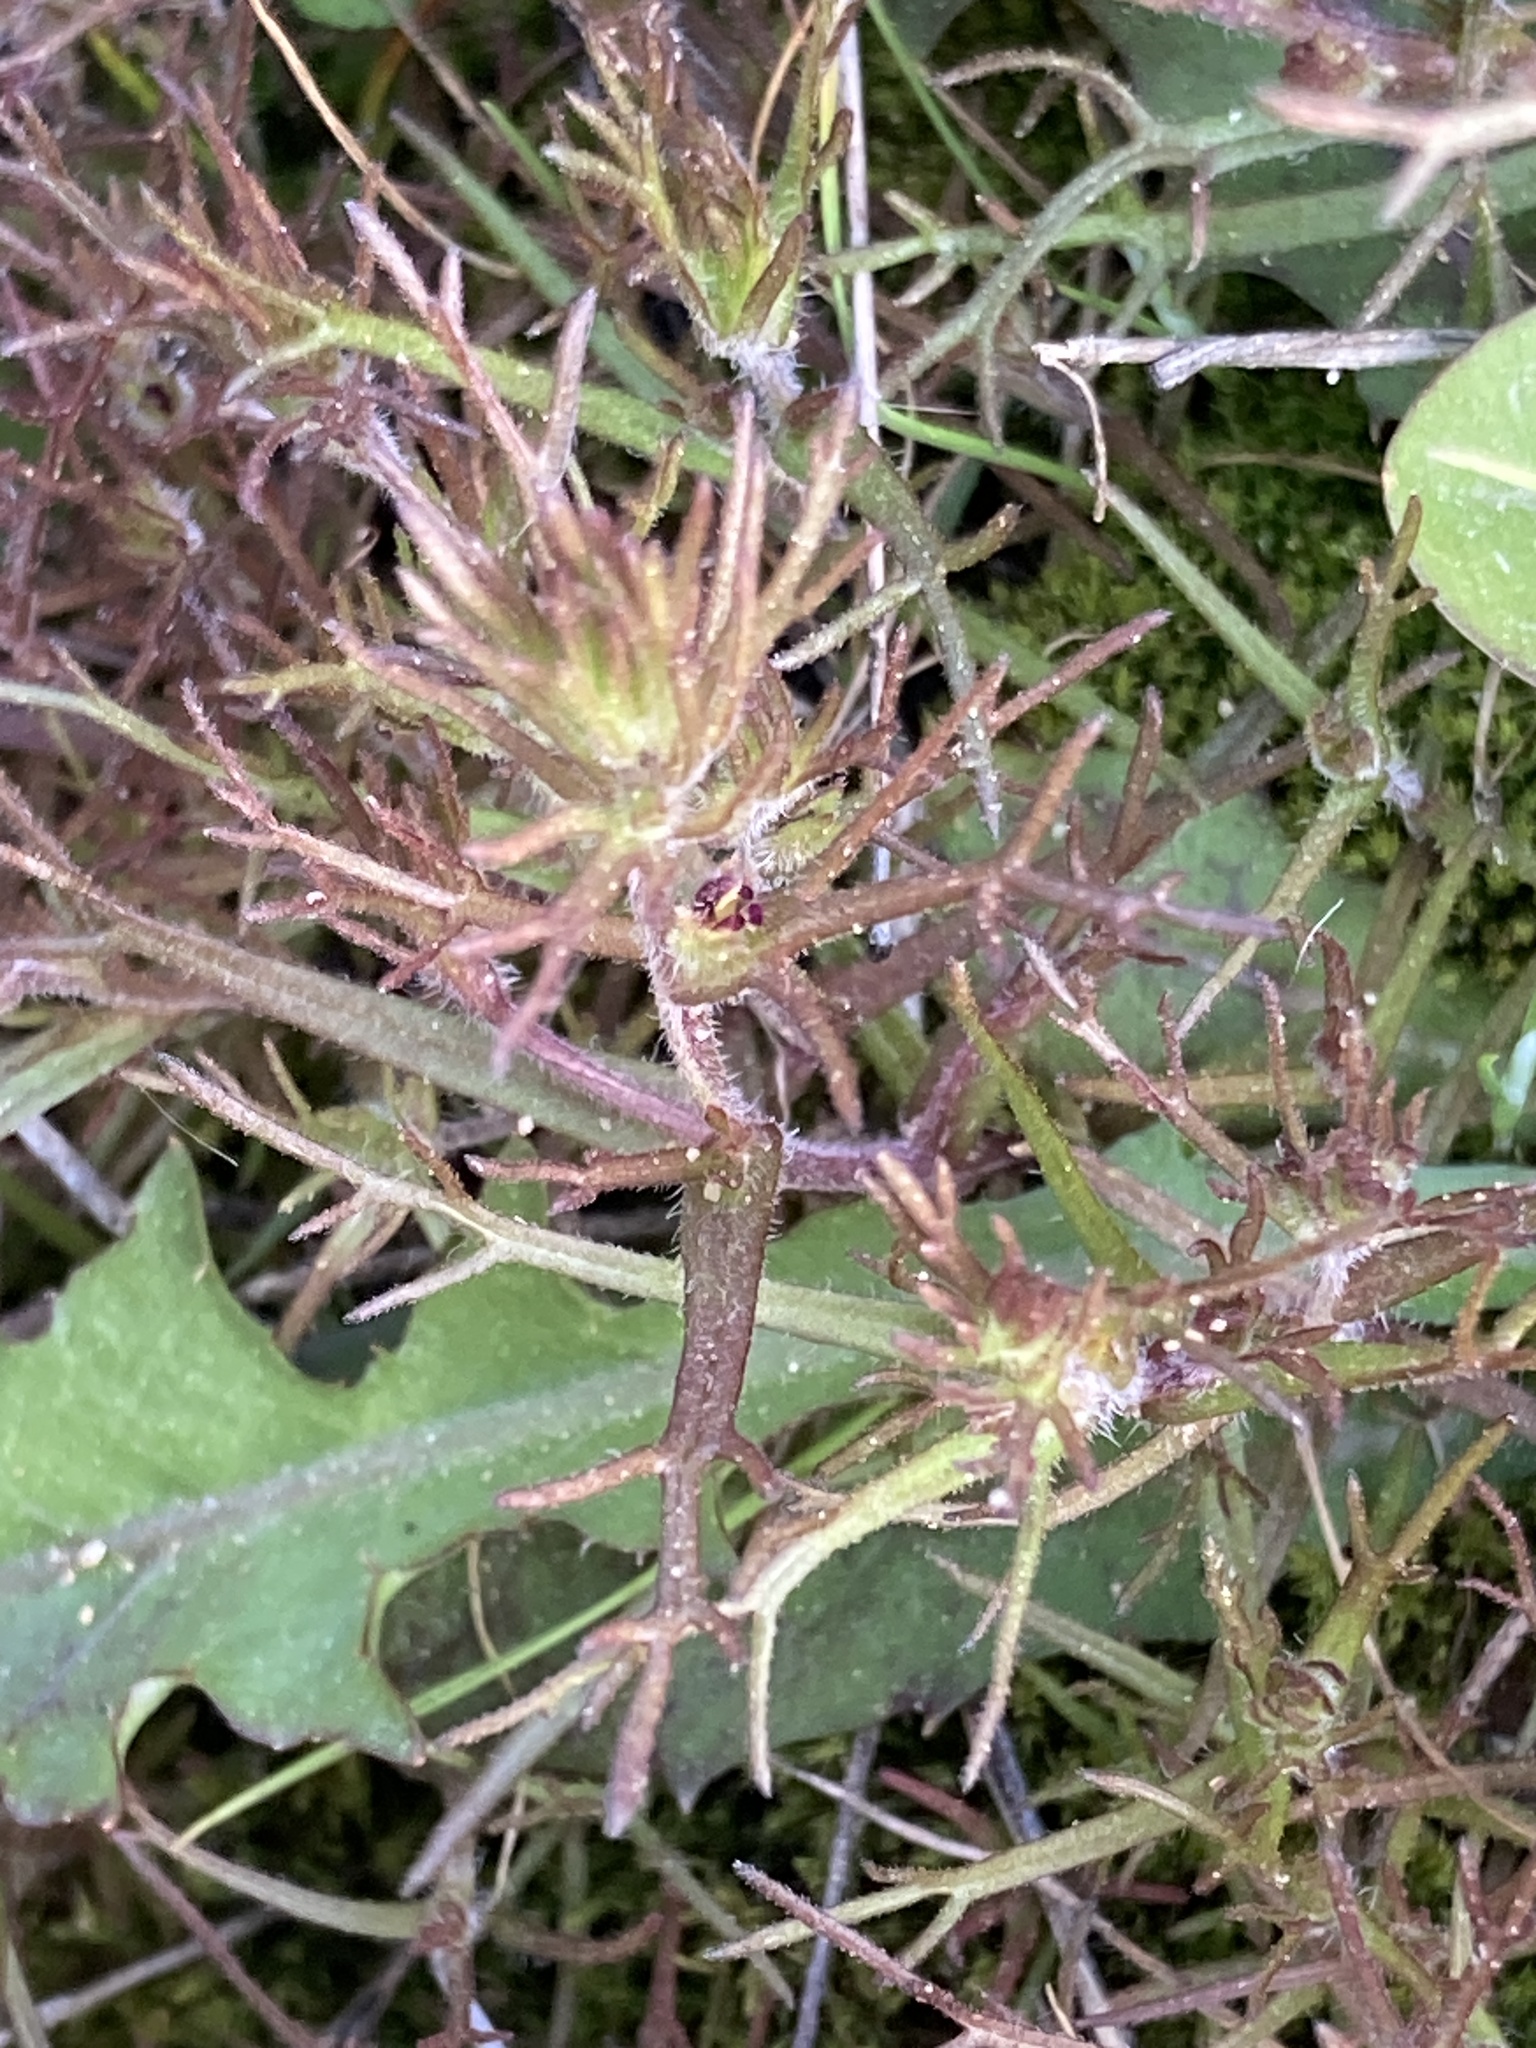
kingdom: Plantae
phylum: Tracheophyta
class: Magnoliopsida
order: Lamiales
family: Orobanchaceae
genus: Triphysaria
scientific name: Triphysaria pusilla
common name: Dwarf false owl-clover
